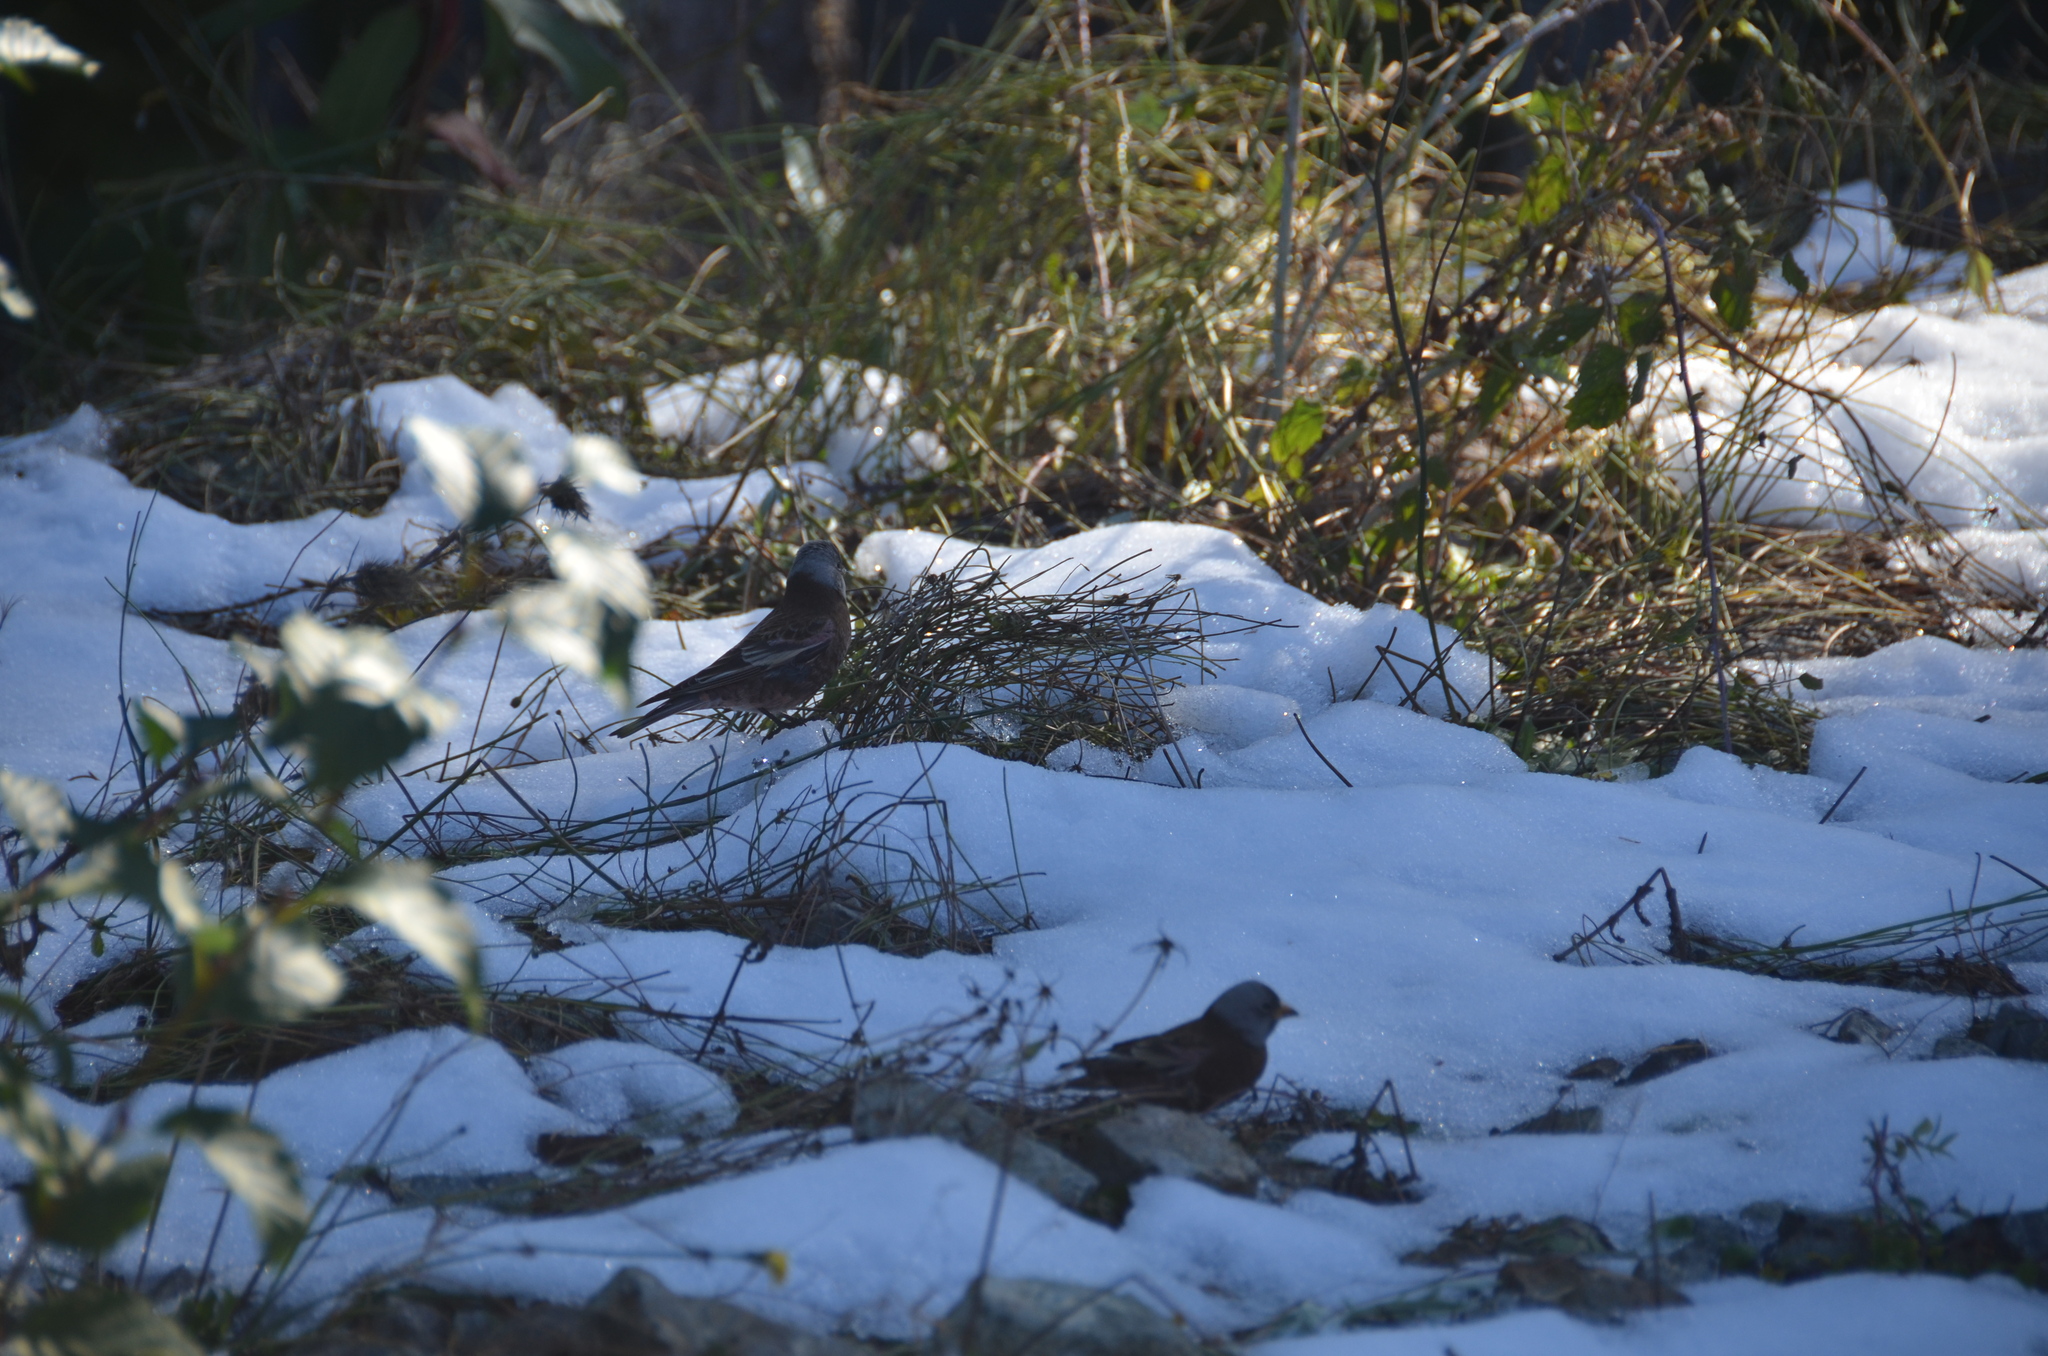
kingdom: Animalia
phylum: Chordata
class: Aves
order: Passeriformes
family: Fringillidae
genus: Leucosticte
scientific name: Leucosticte tephrocotis
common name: Gray-crowned rosy-finch
